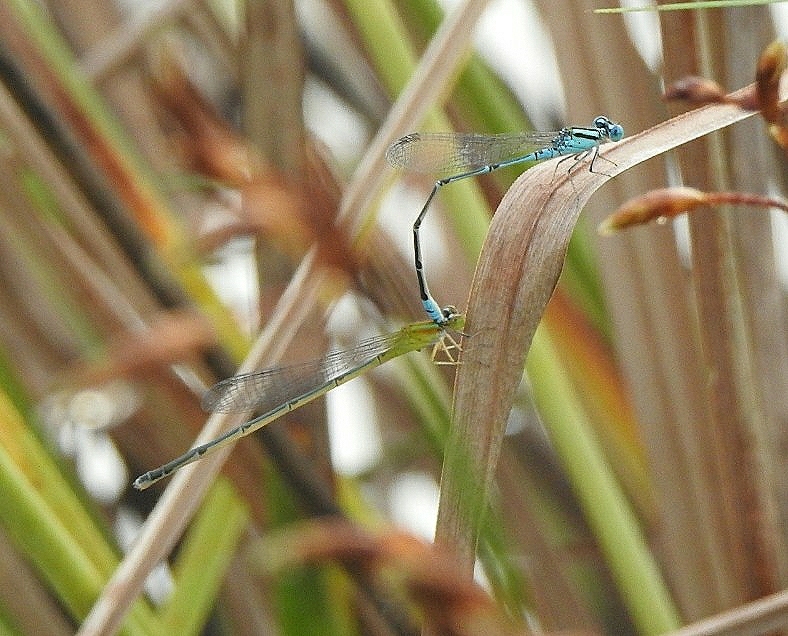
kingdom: Animalia
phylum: Arthropoda
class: Insecta
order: Odonata
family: Coenagrionidae
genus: Pseudagrion
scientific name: Pseudagrion microcephalum
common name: Blue riverdamsel
